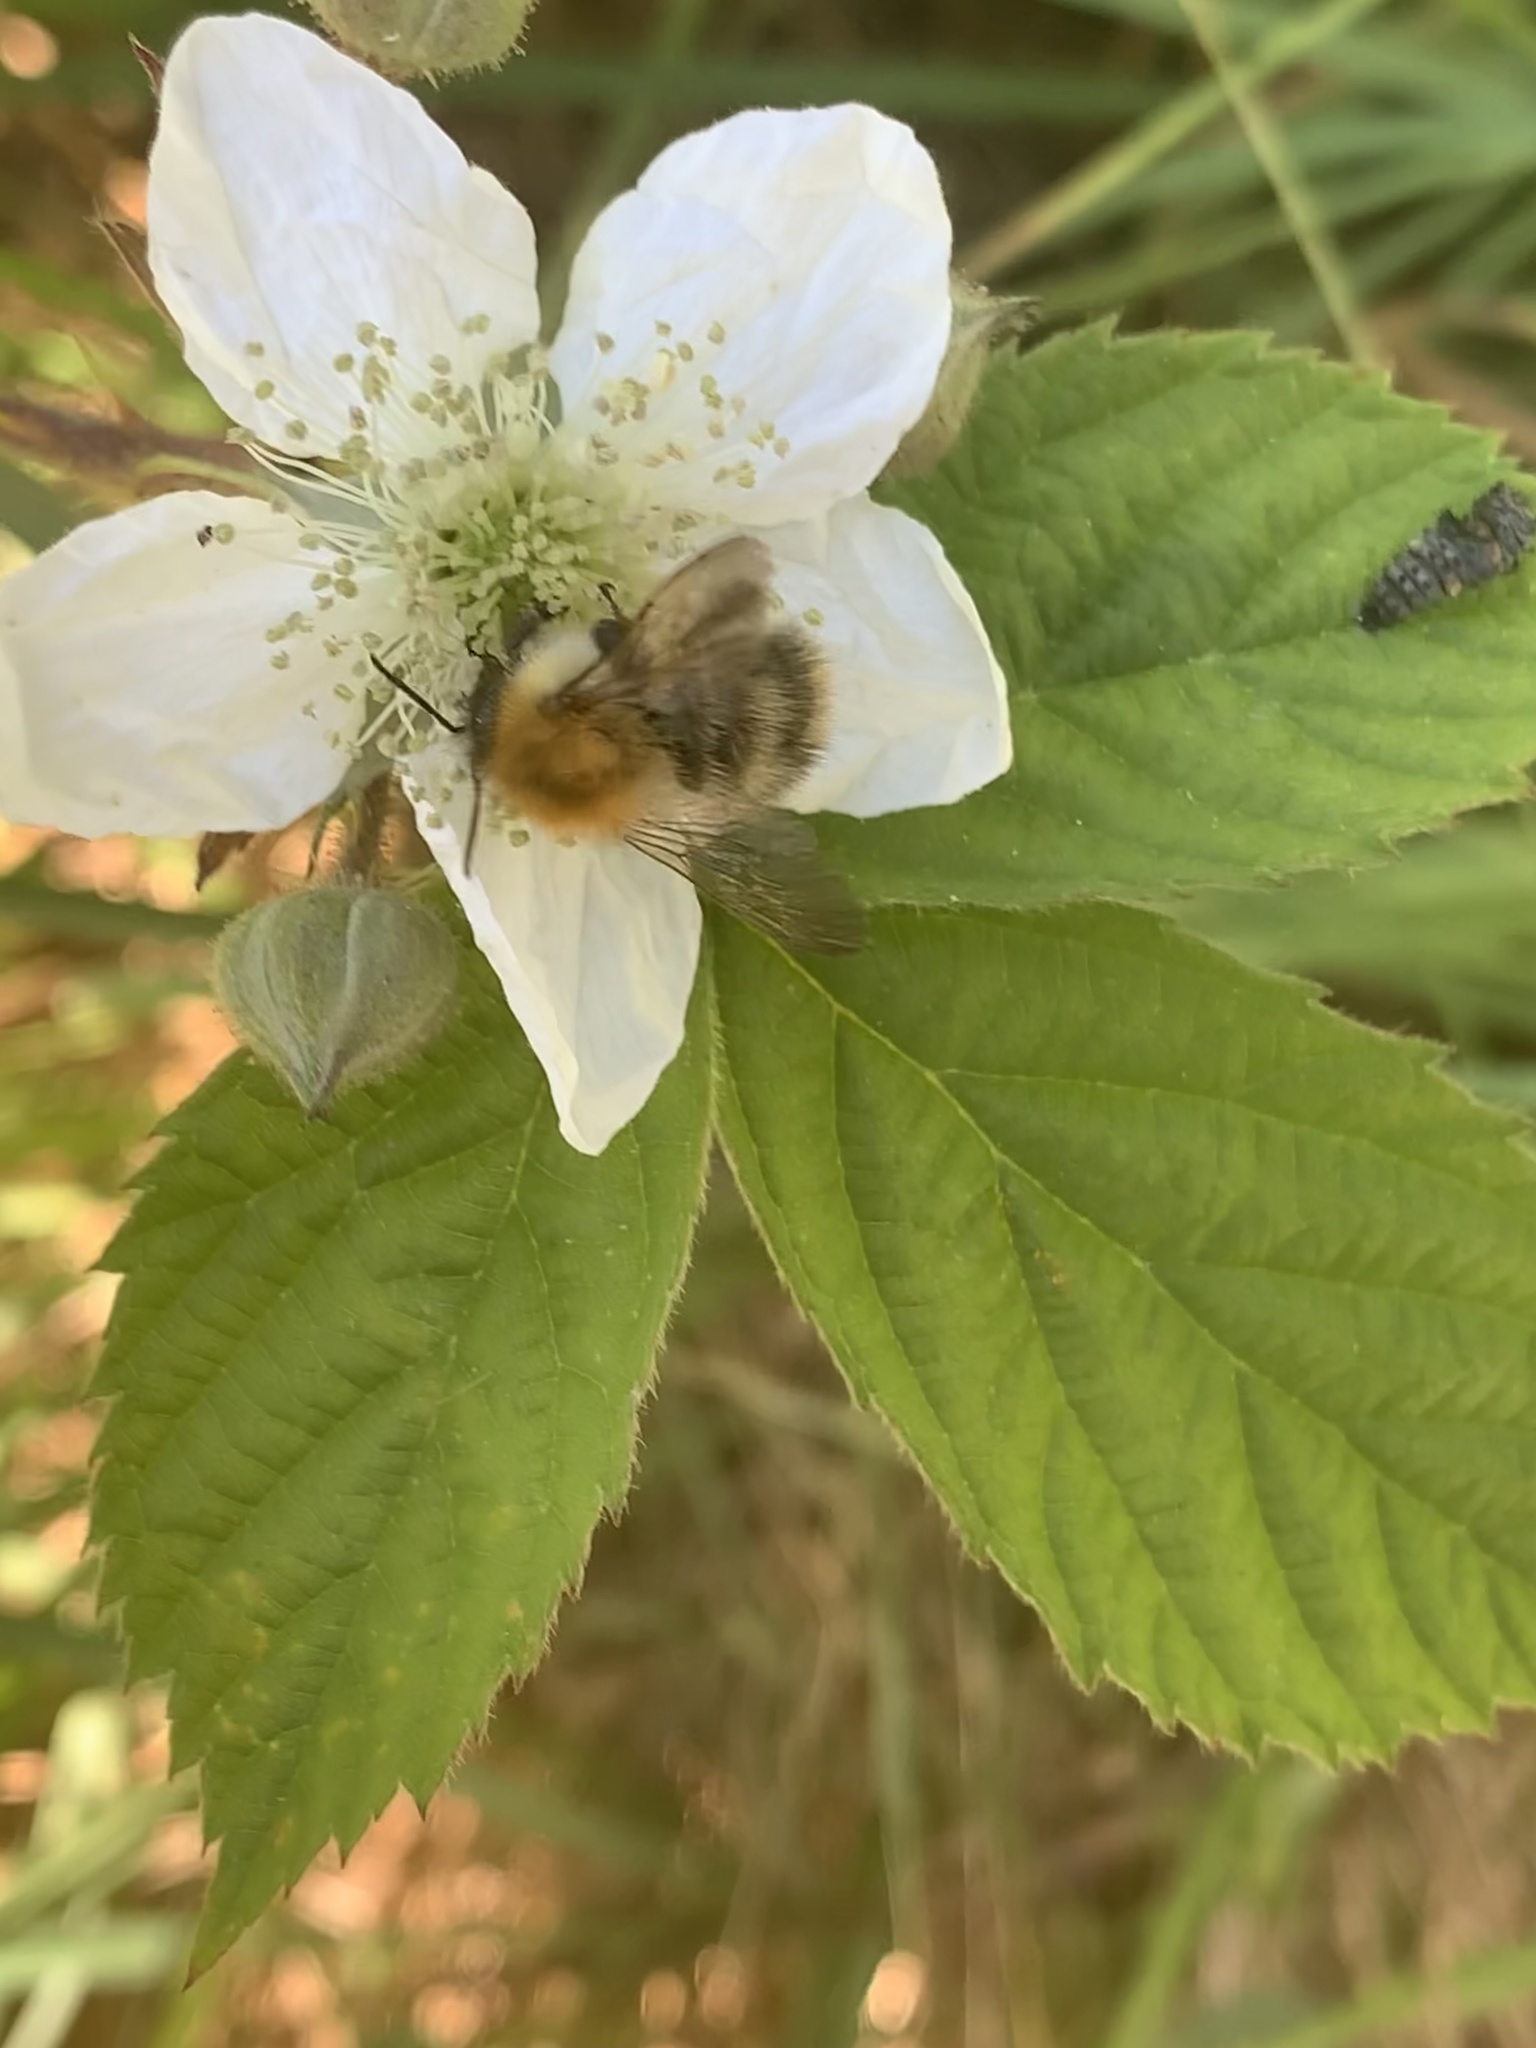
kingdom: Animalia
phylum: Arthropoda
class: Insecta
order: Hymenoptera
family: Apidae
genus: Bombus
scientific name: Bombus pascuorum
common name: Common carder bee
